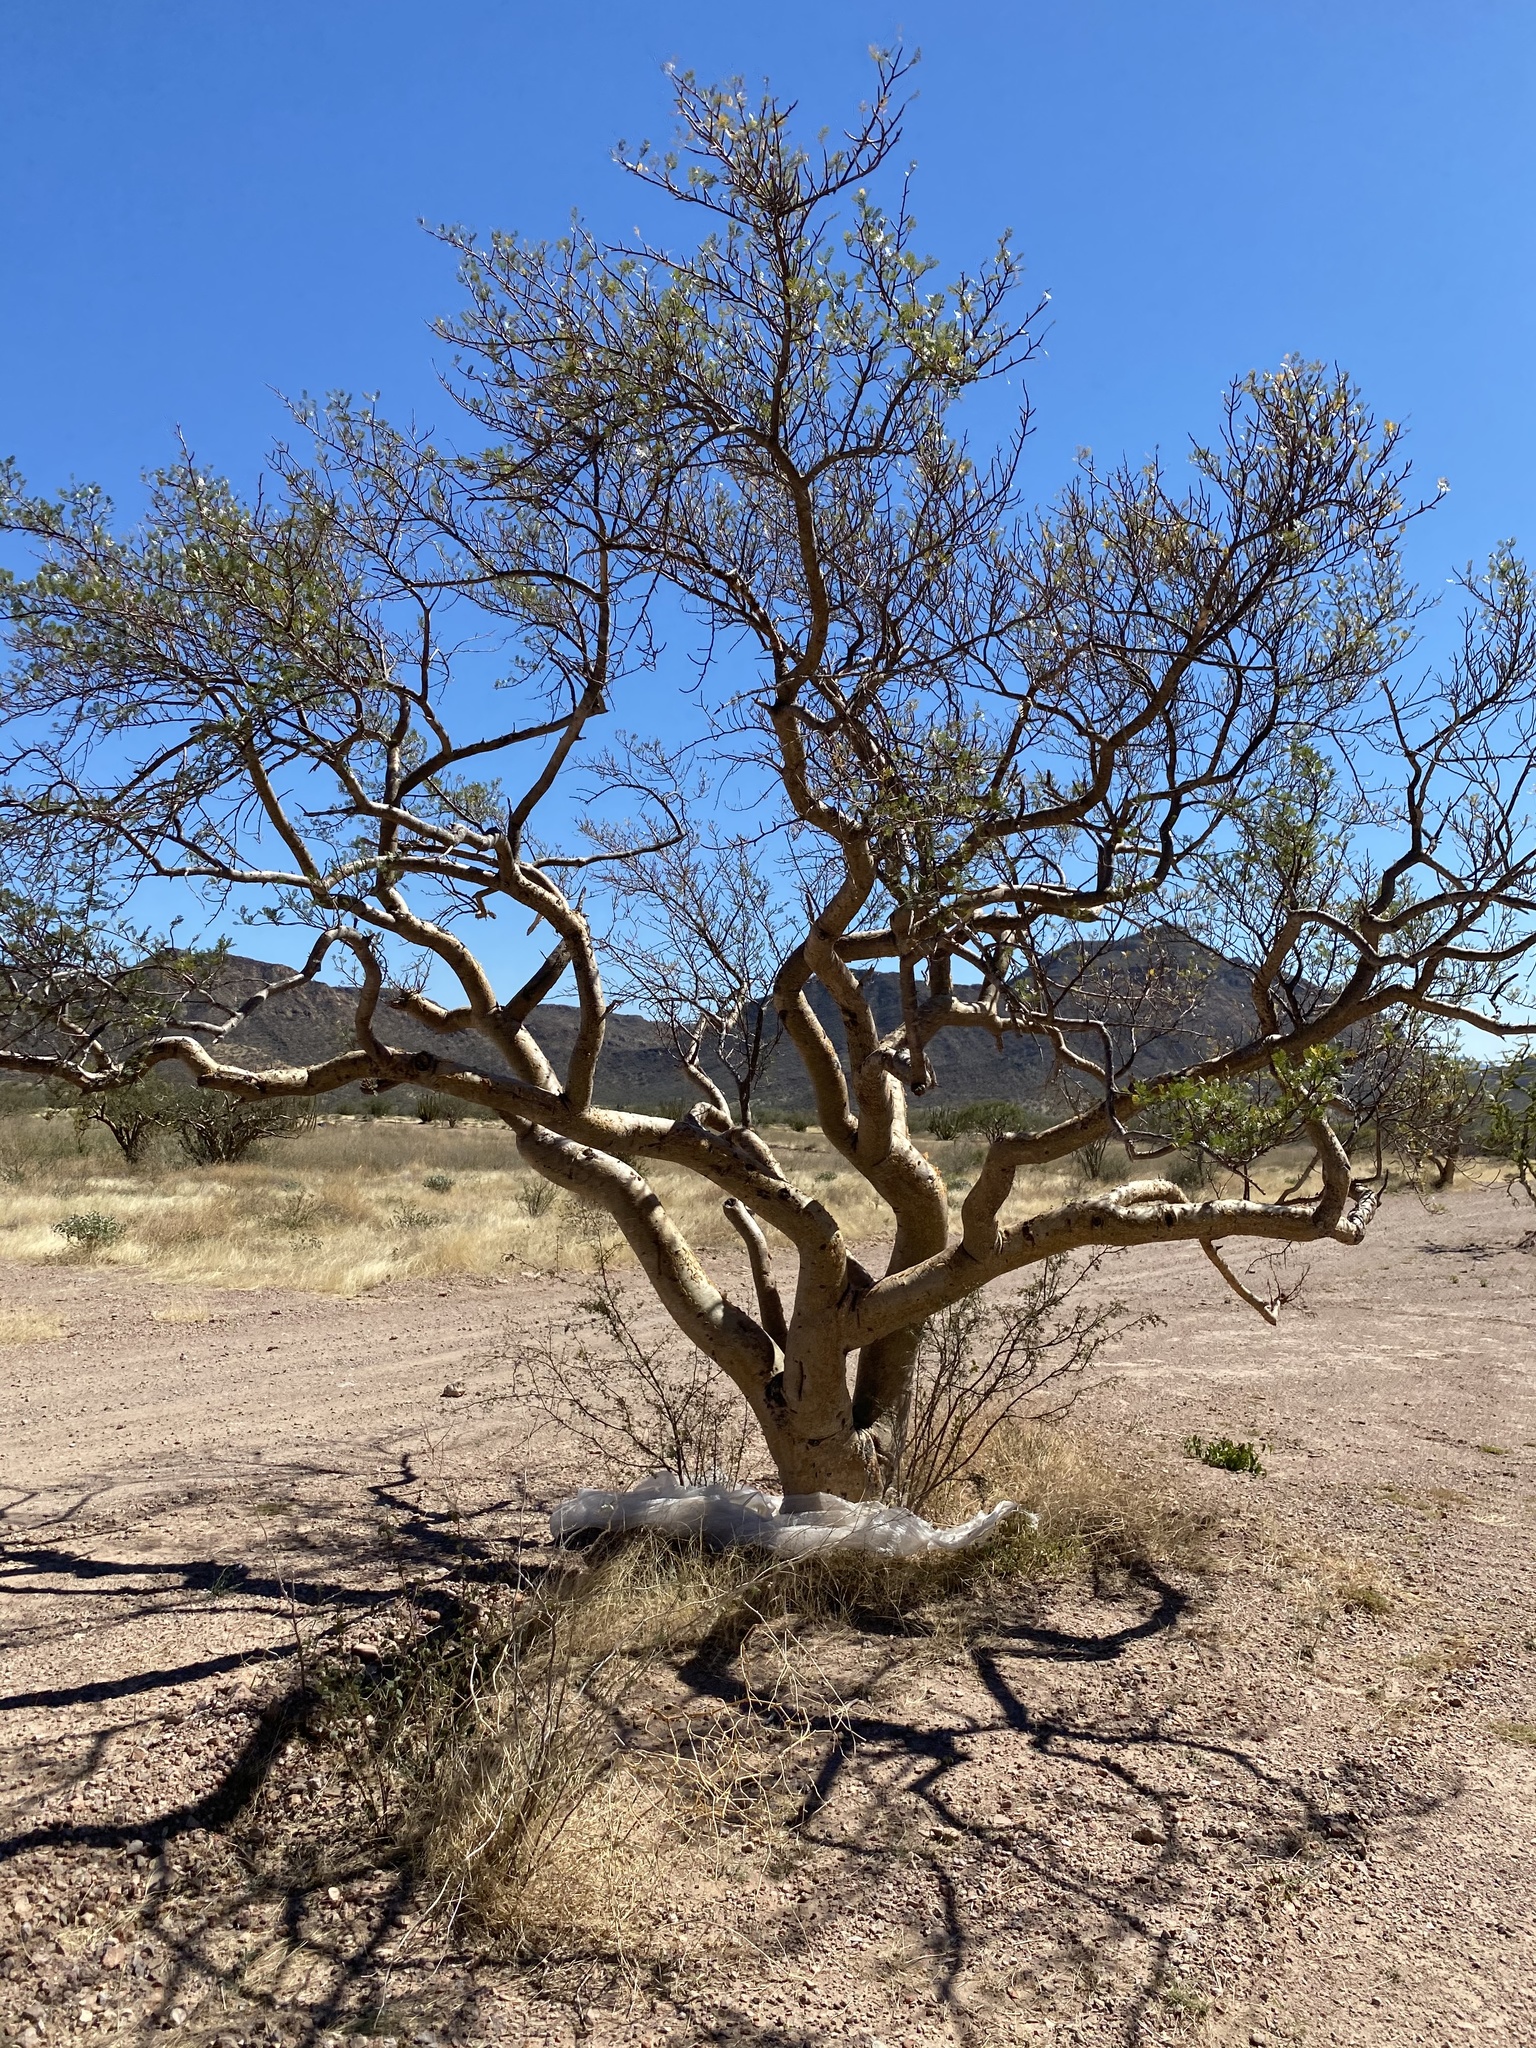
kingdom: Plantae
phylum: Tracheophyta
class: Magnoliopsida
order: Sapindales
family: Burseraceae
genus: Bursera
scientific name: Bursera laxiflora
